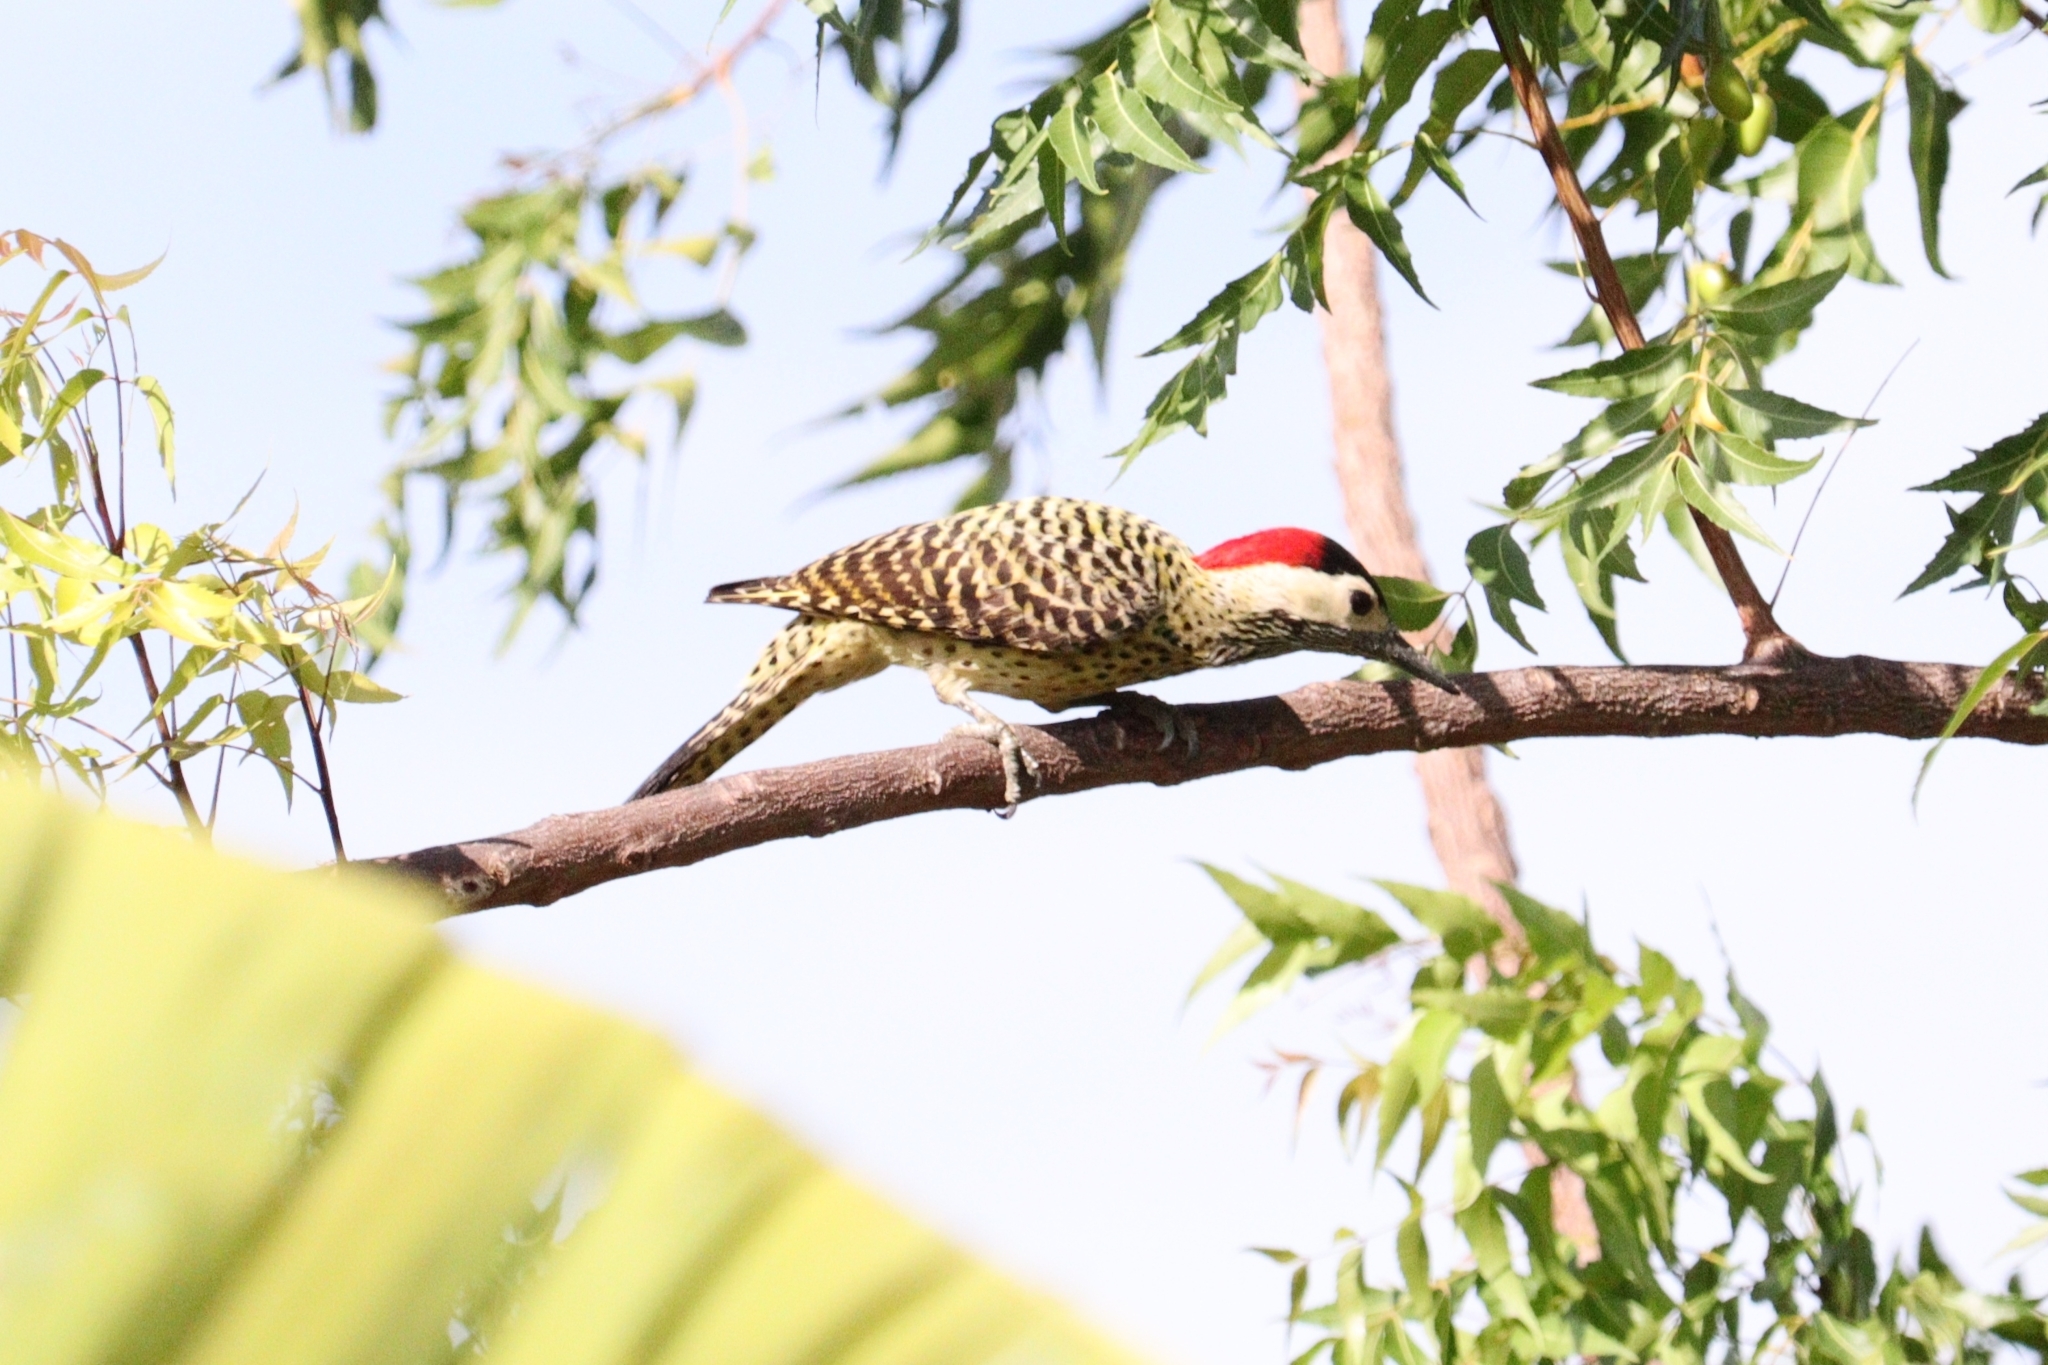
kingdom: Animalia
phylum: Chordata
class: Aves
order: Piciformes
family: Picidae
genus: Colaptes
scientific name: Colaptes melanochloros
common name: Green-barred woodpecker
